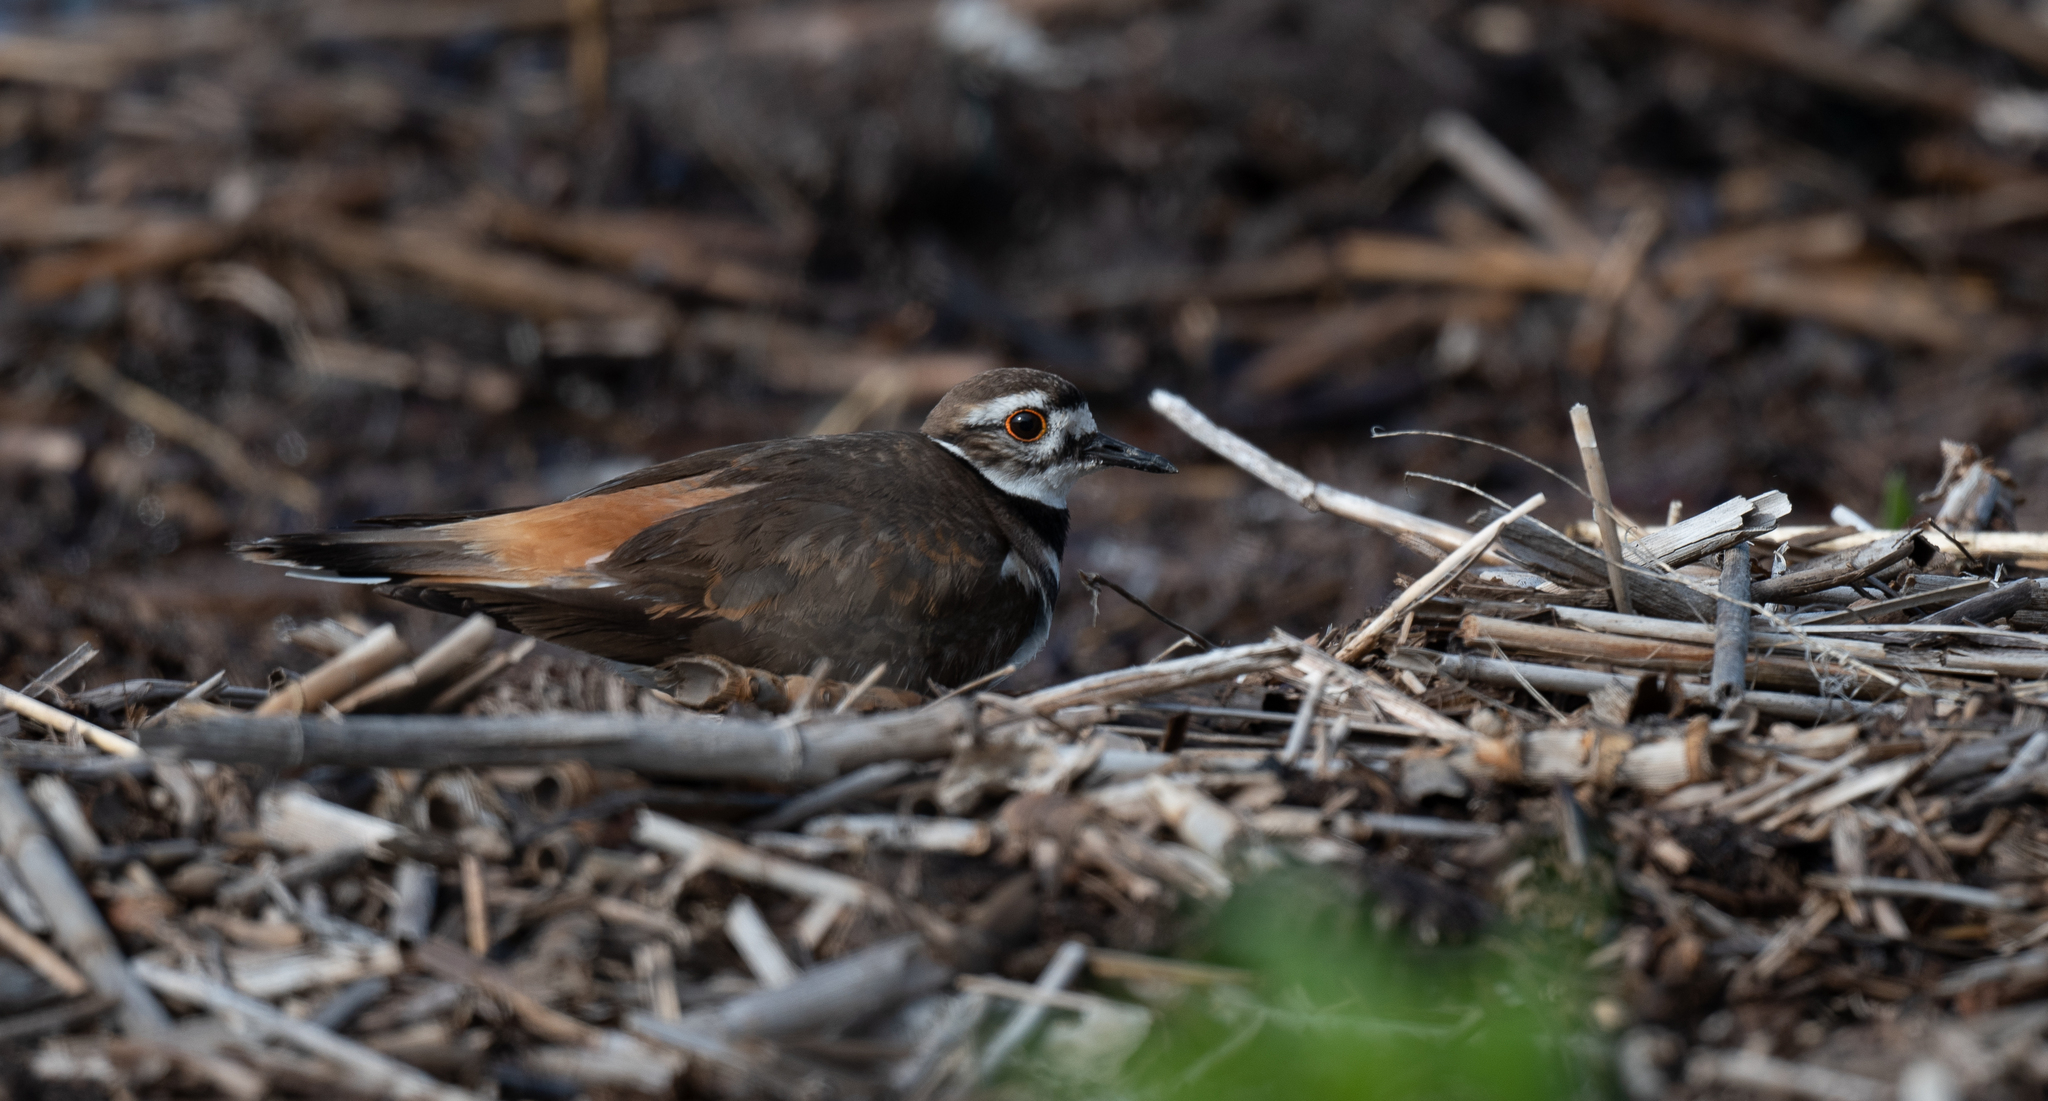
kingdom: Animalia
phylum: Chordata
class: Aves
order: Charadriiformes
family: Charadriidae
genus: Charadrius
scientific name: Charadrius vociferus
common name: Killdeer
